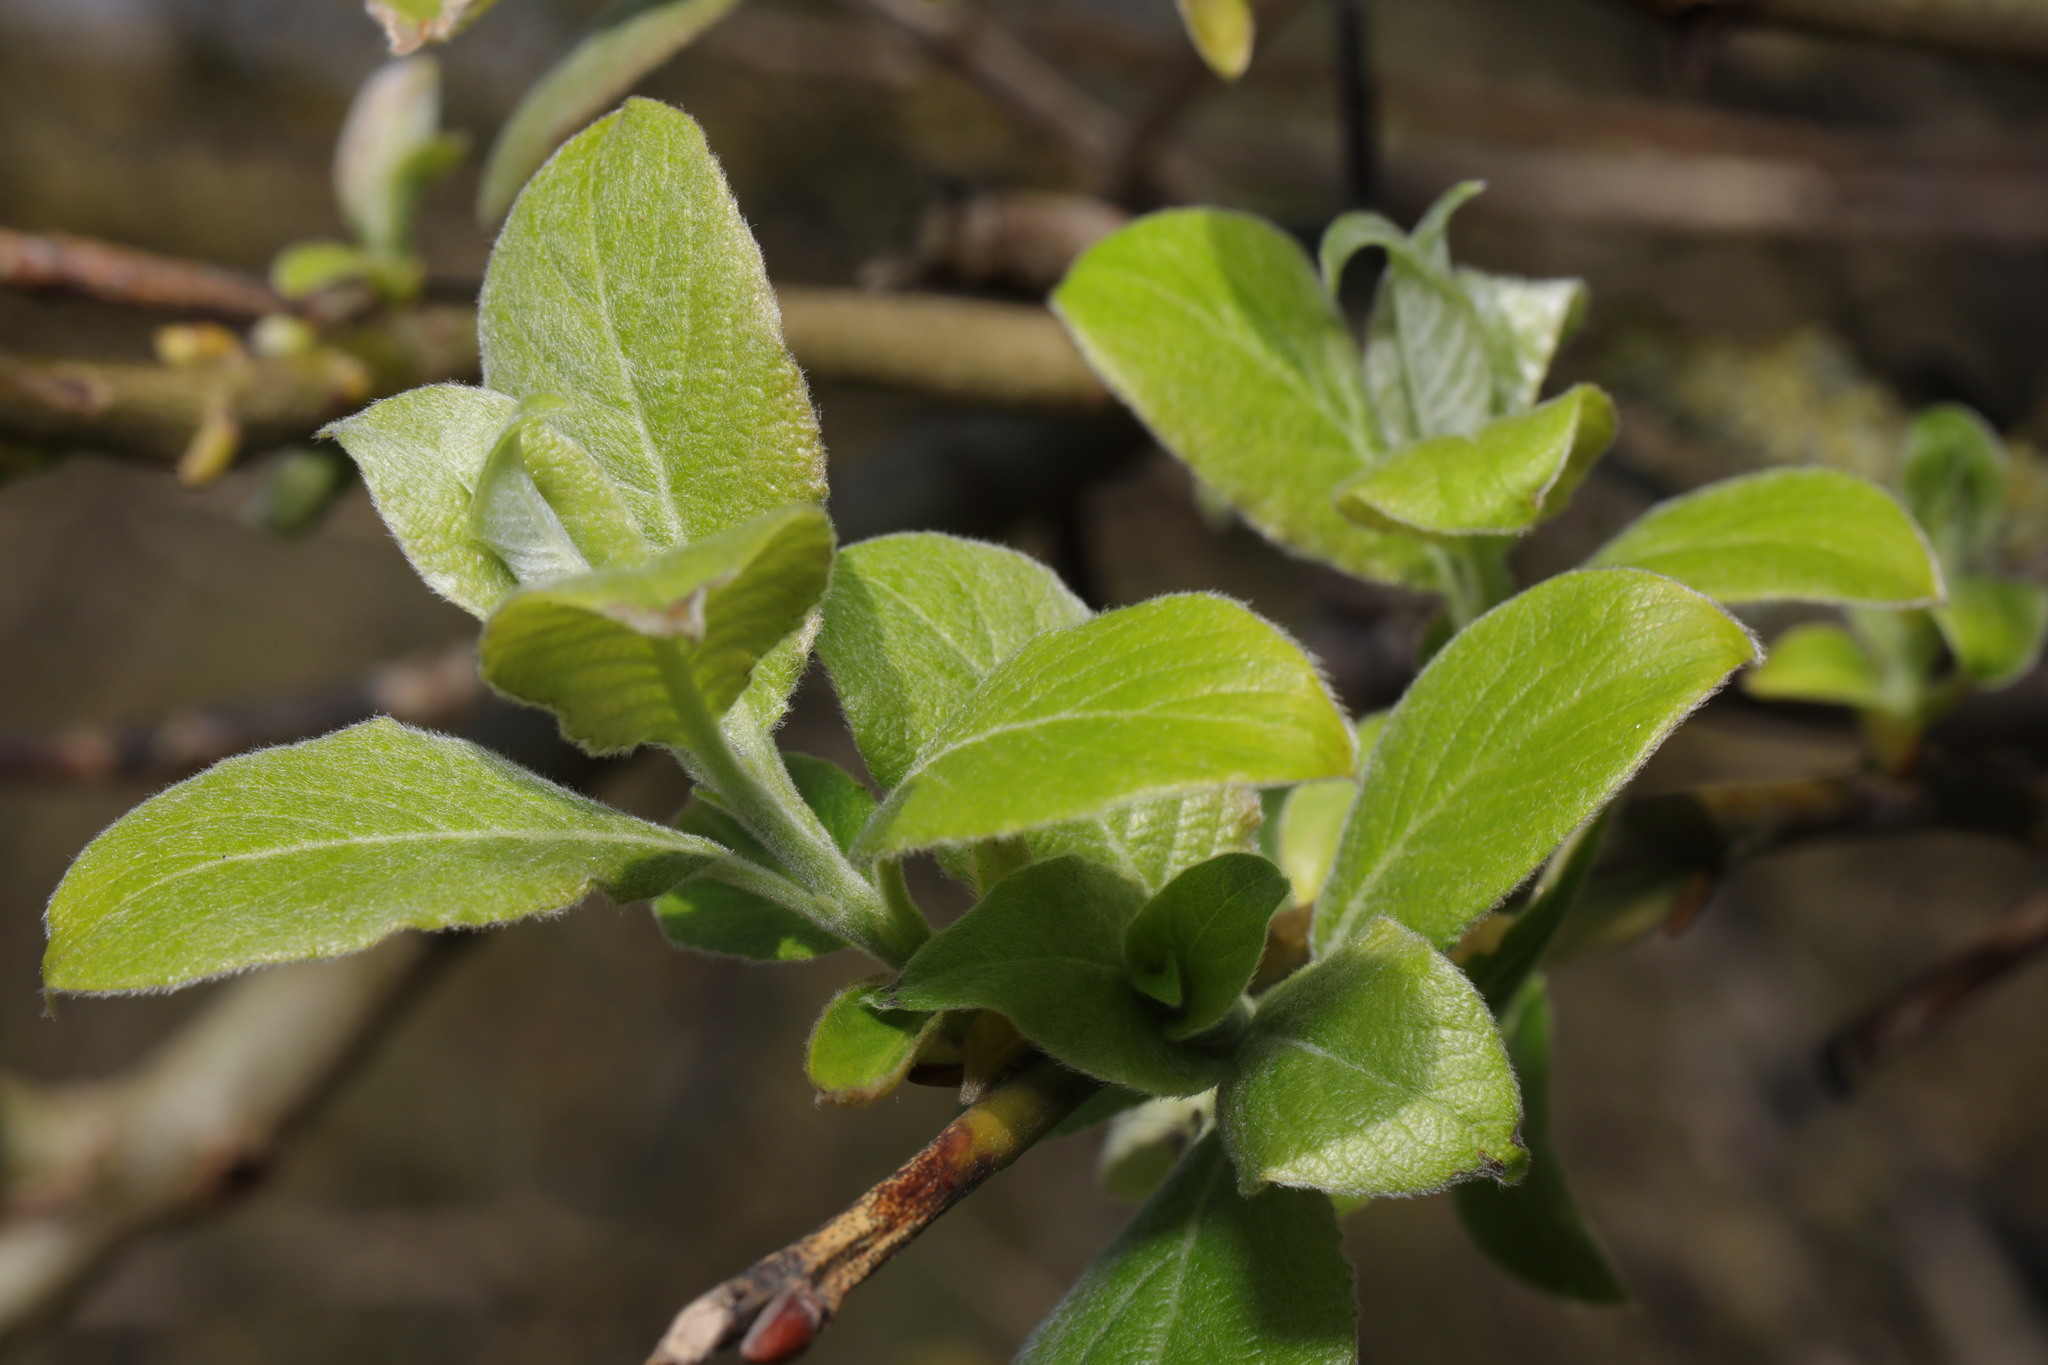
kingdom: Plantae
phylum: Tracheophyta
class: Magnoliopsida
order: Malpighiales
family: Salicaceae
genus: Salix
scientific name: Salix caprea
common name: Goat willow
